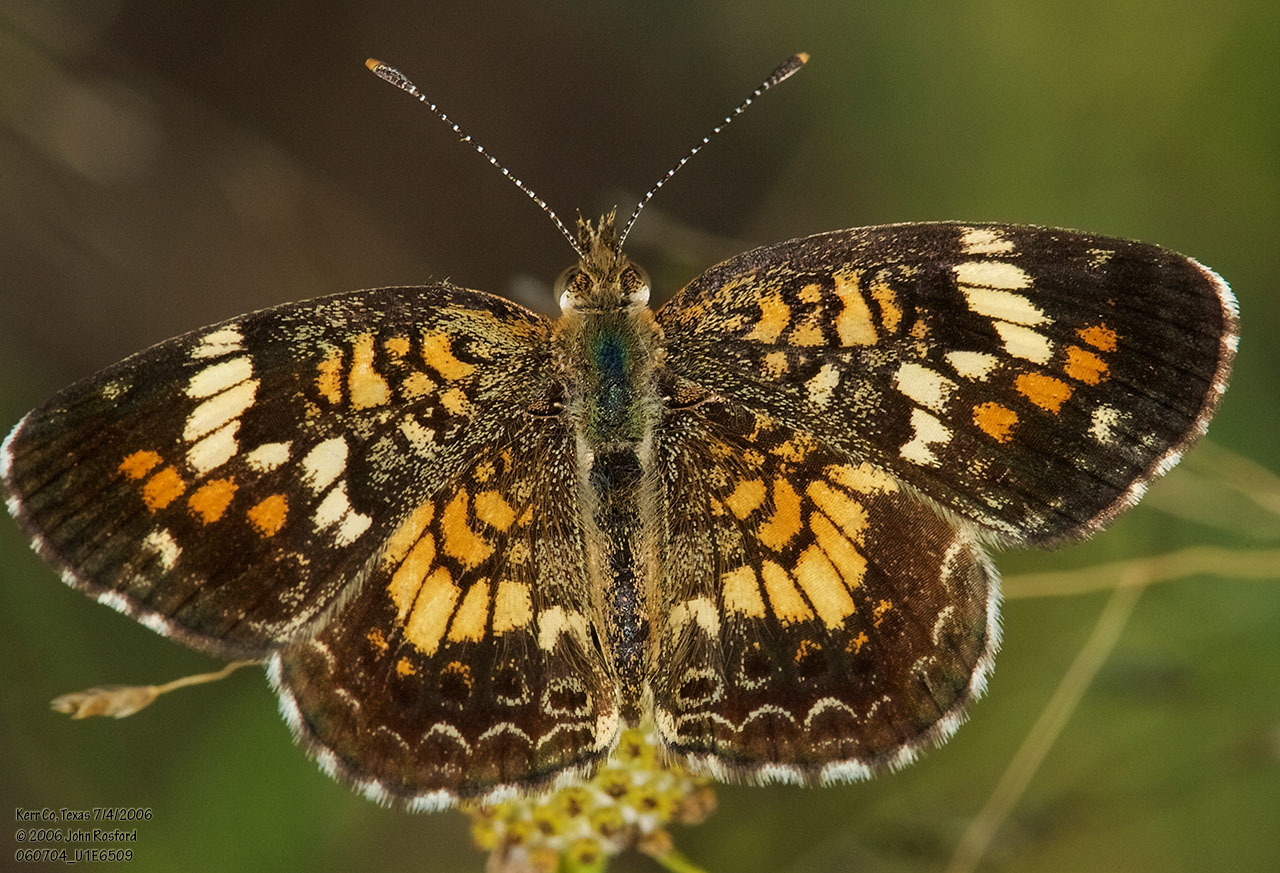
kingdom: Animalia
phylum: Arthropoda
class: Insecta
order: Lepidoptera
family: Nymphalidae
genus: Phyciodes
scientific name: Phyciodes phaon
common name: Phaon crescent
